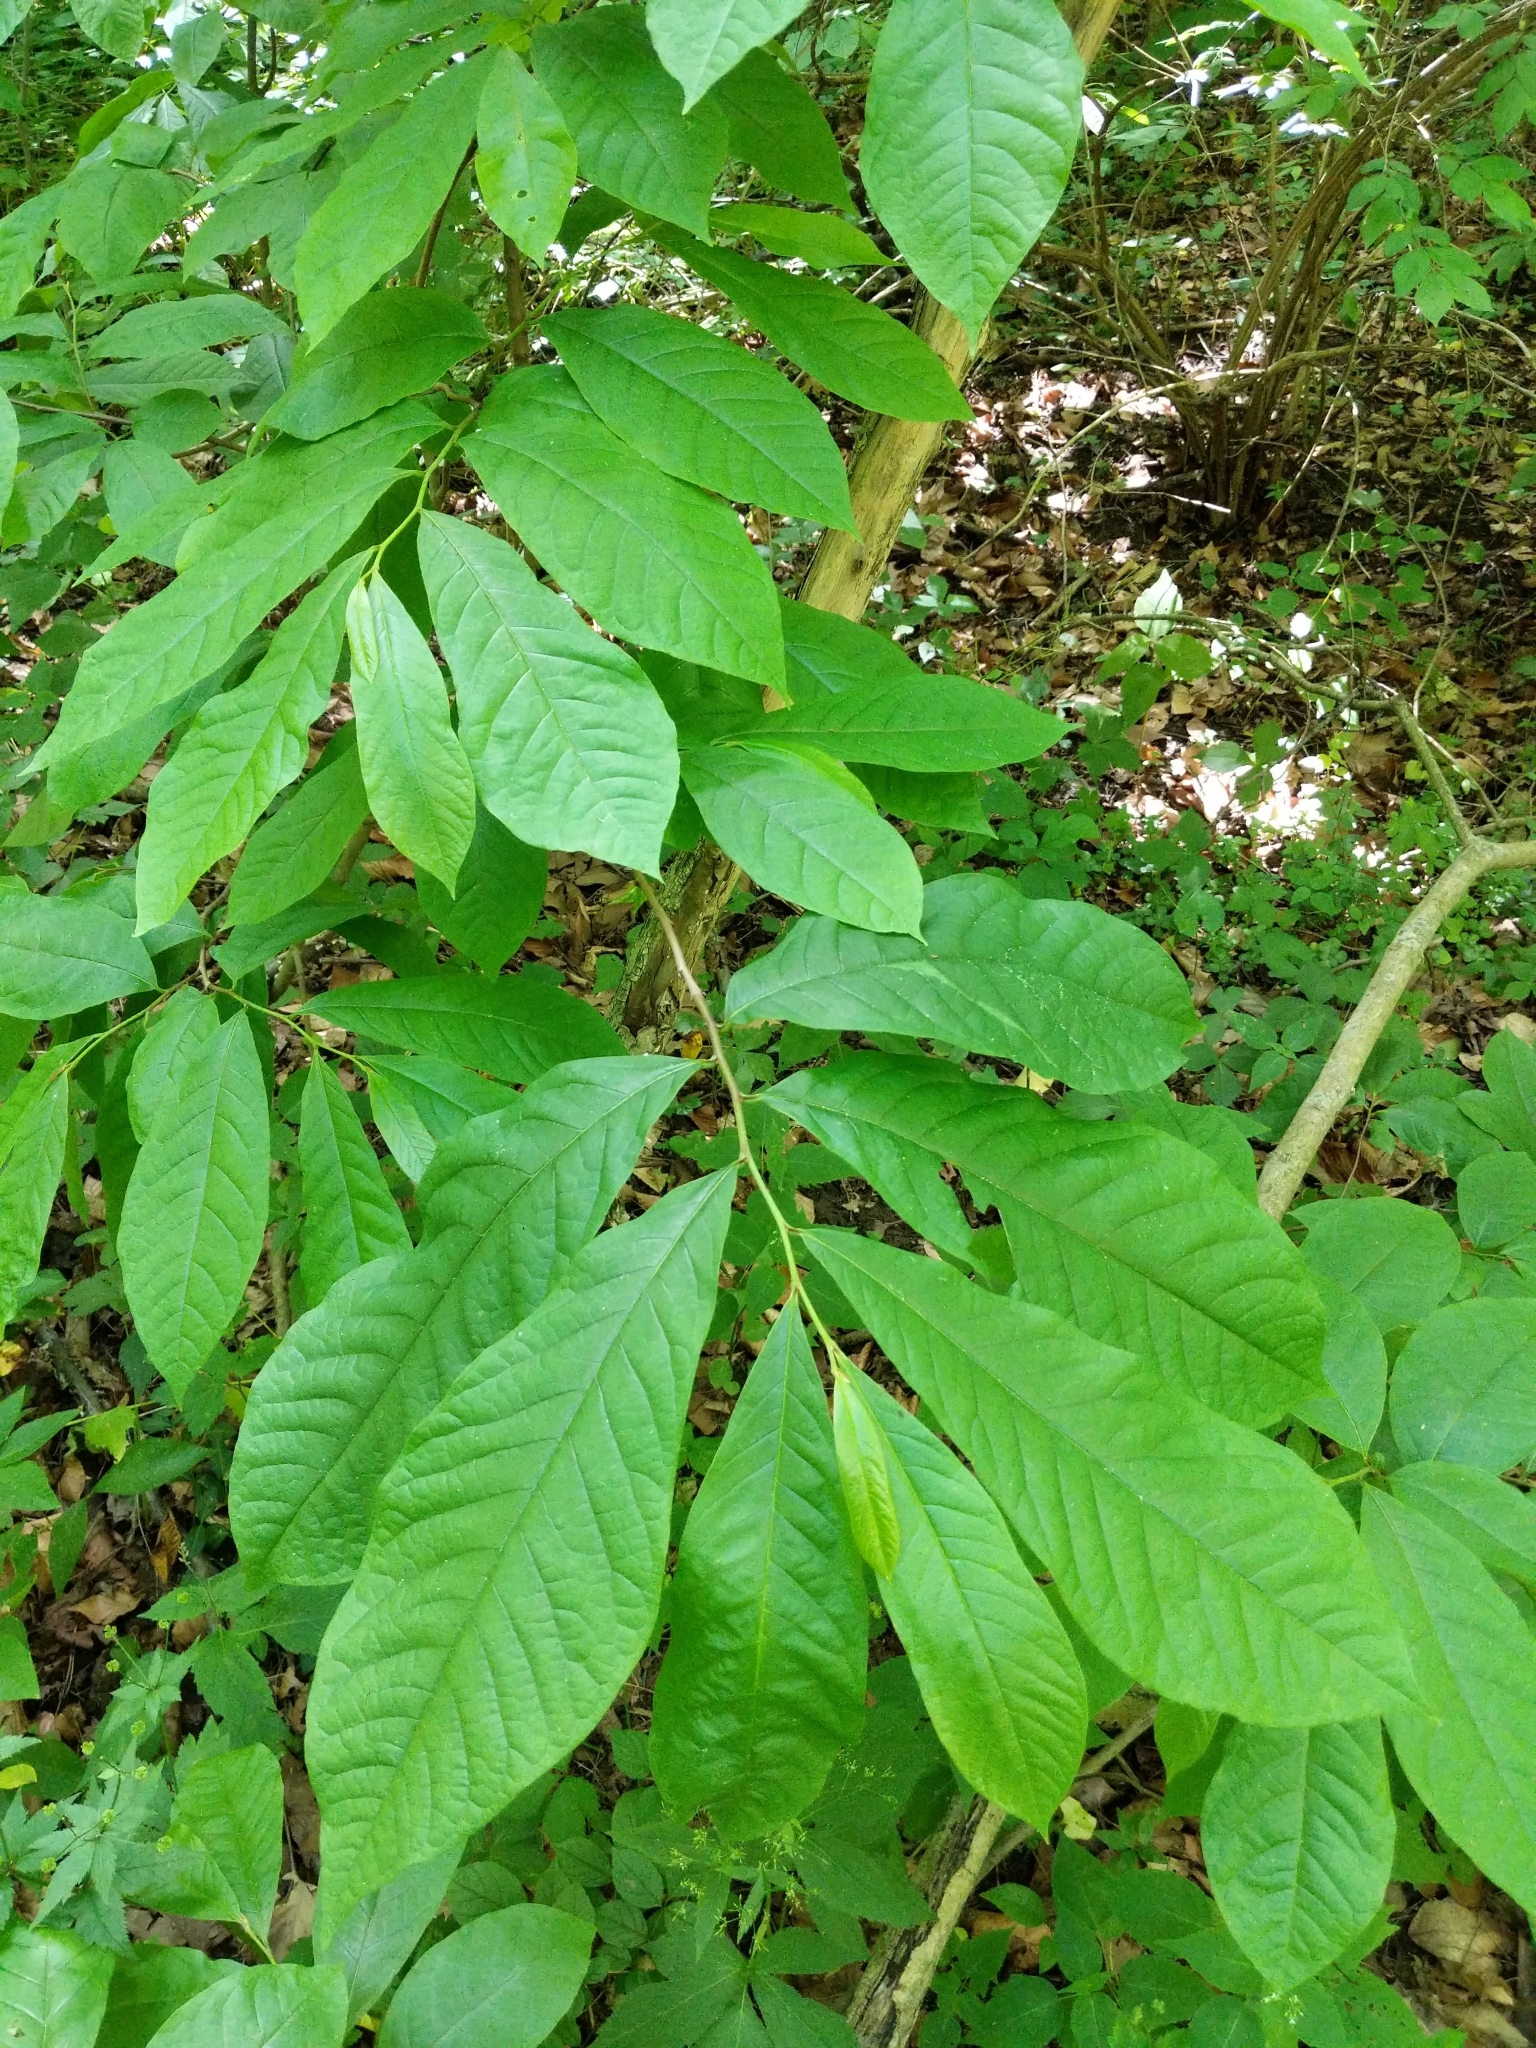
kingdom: Plantae
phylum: Tracheophyta
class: Magnoliopsida
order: Magnoliales
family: Annonaceae
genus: Asimina
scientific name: Asimina triloba
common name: Dog-banana
